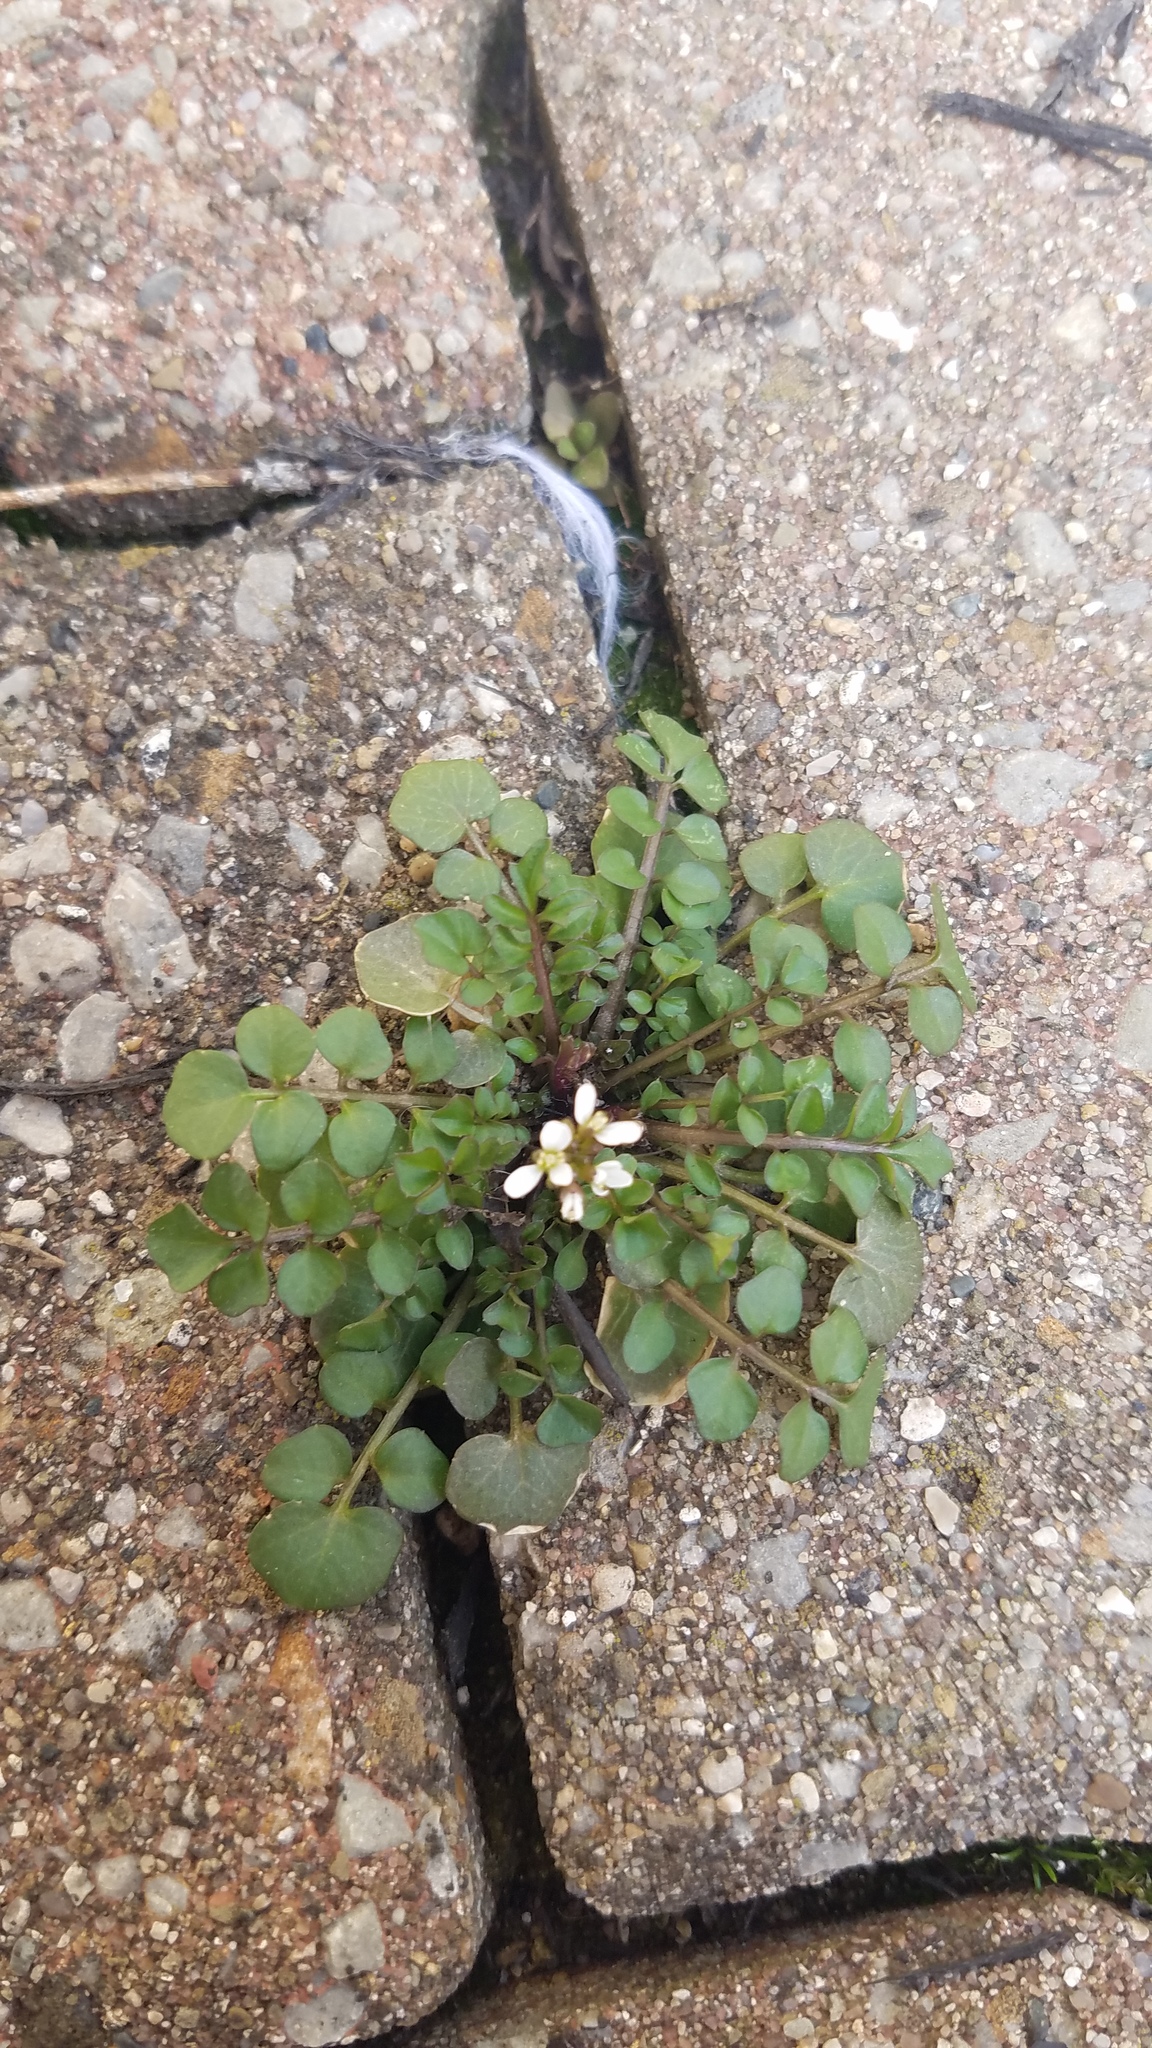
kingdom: Plantae
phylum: Tracheophyta
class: Magnoliopsida
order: Brassicales
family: Brassicaceae
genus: Cardamine
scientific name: Cardamine hirsuta
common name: Hairy bittercress
